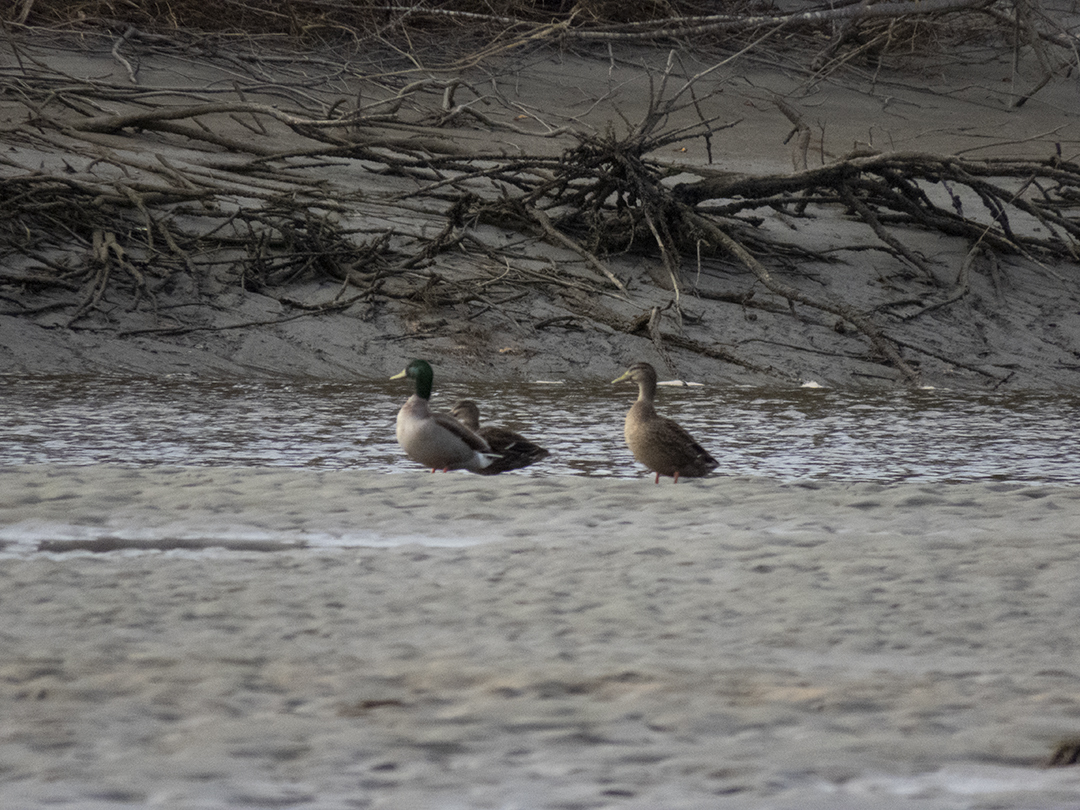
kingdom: Animalia
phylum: Chordata
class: Aves
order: Anseriformes
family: Anatidae
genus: Anas
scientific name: Anas platyrhynchos
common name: Mallard
